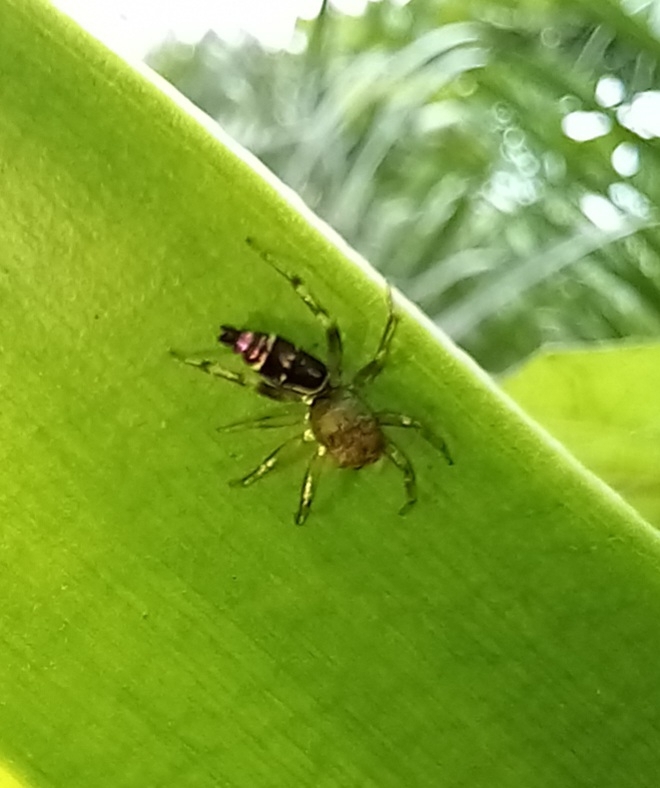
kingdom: Animalia
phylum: Arthropoda
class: Arachnida
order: Araneae
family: Salticidae
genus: Cosmophasis
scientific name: Cosmophasis thalassina
